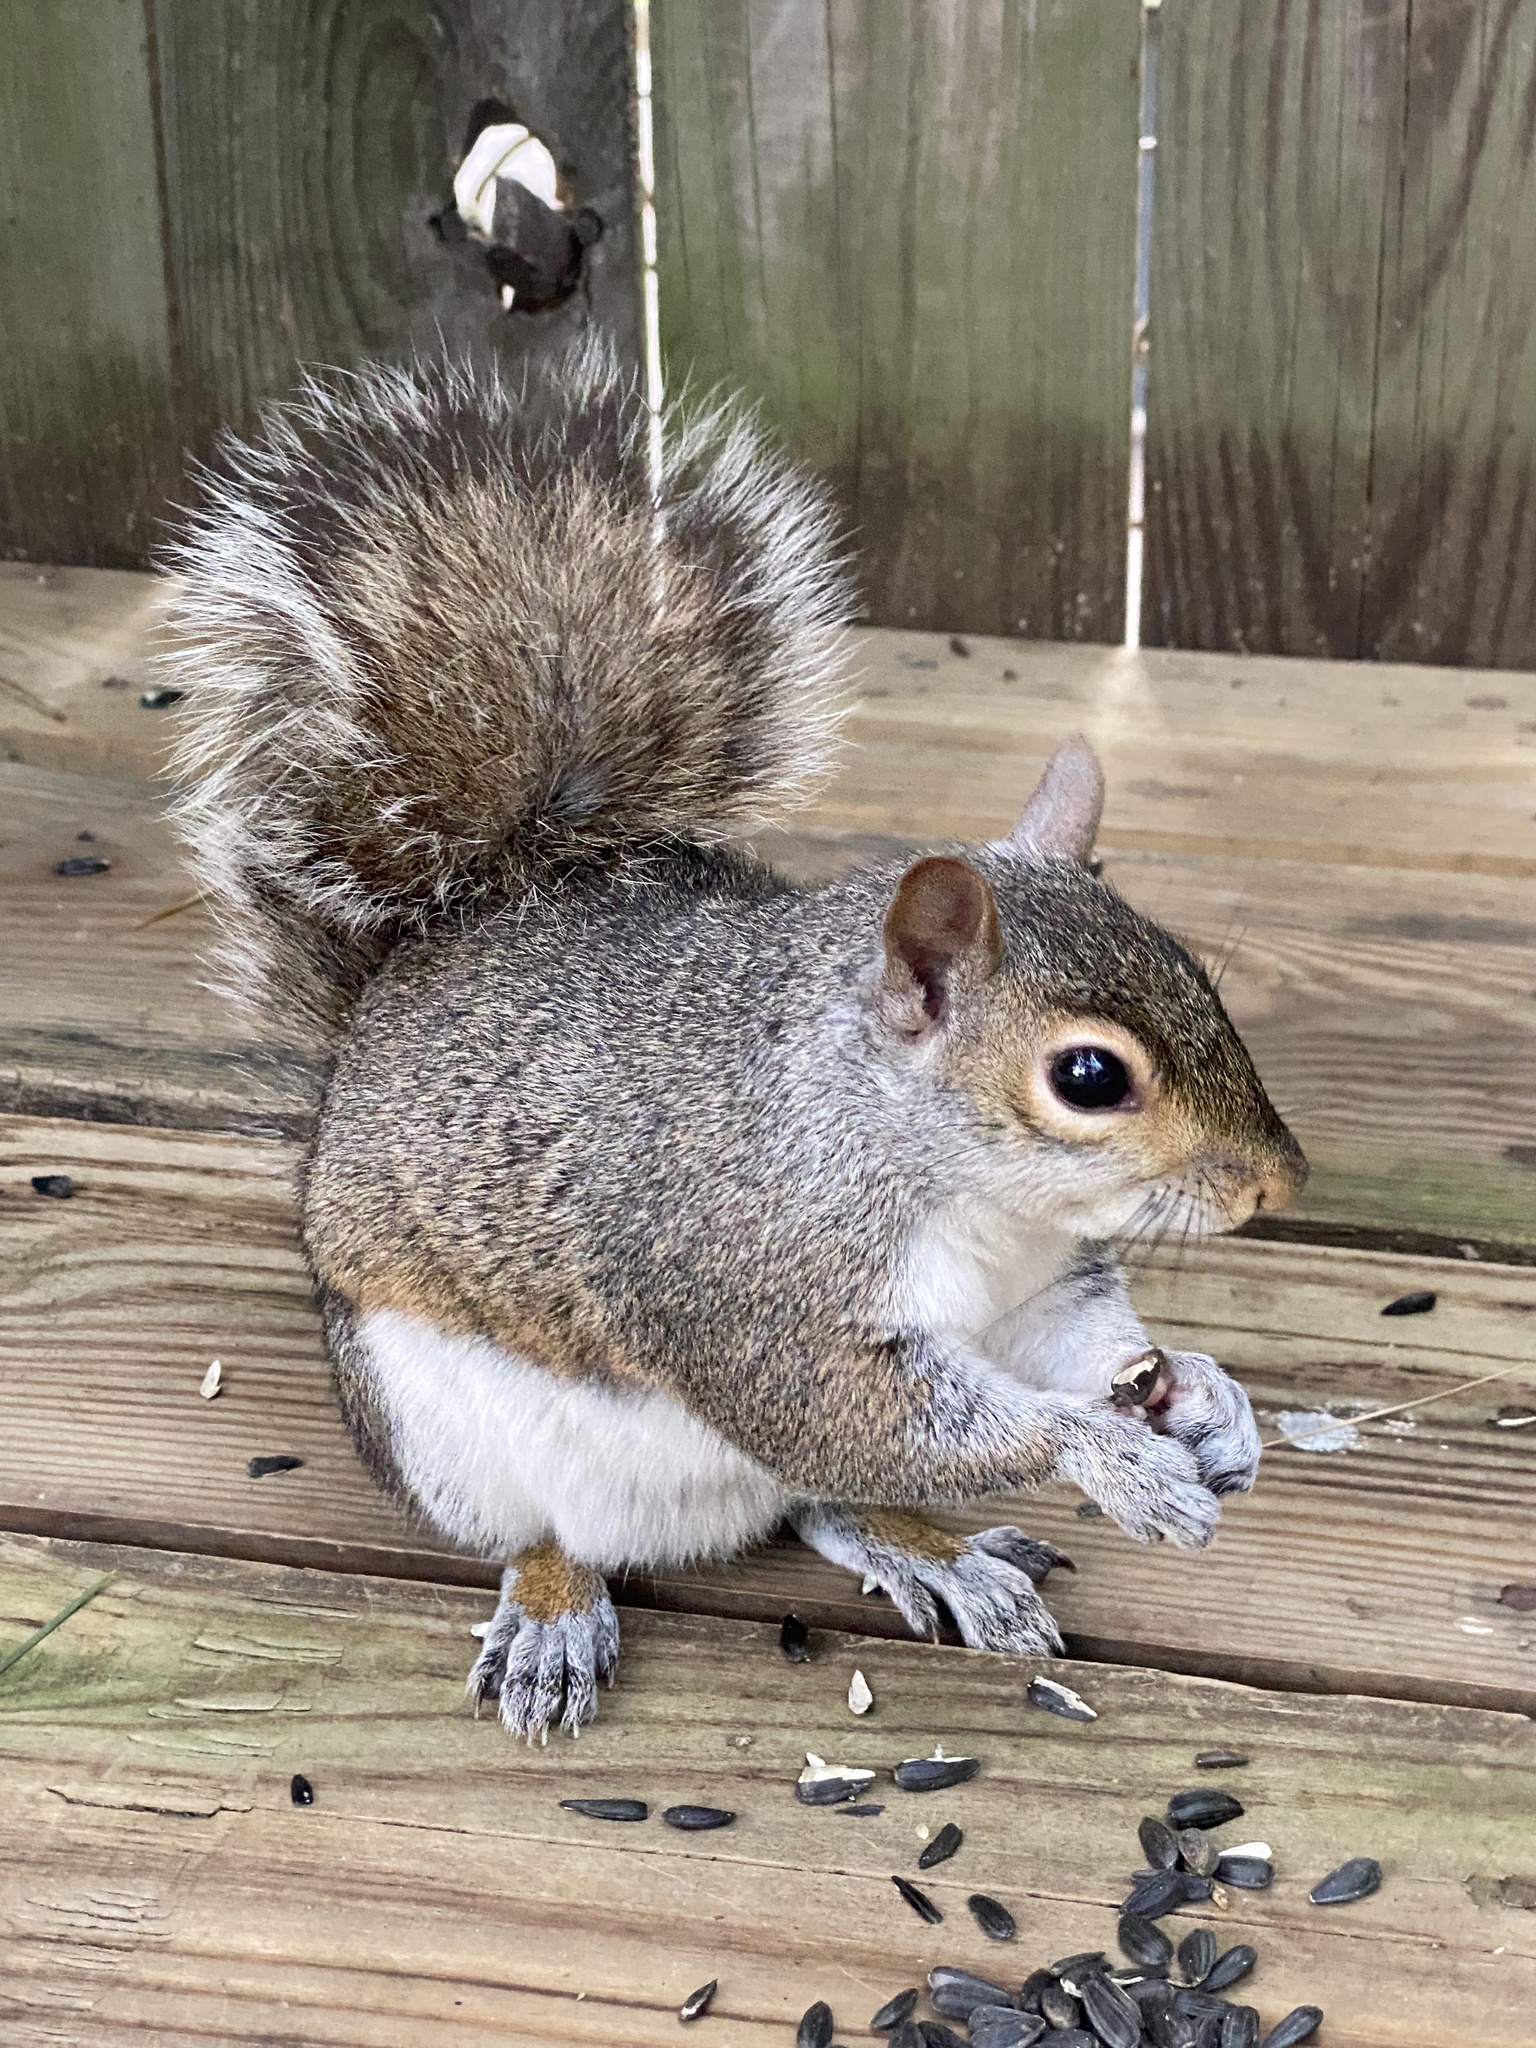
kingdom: Animalia
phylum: Chordata
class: Mammalia
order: Rodentia
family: Sciuridae
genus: Sciurus
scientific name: Sciurus carolinensis
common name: Eastern gray squirrel
